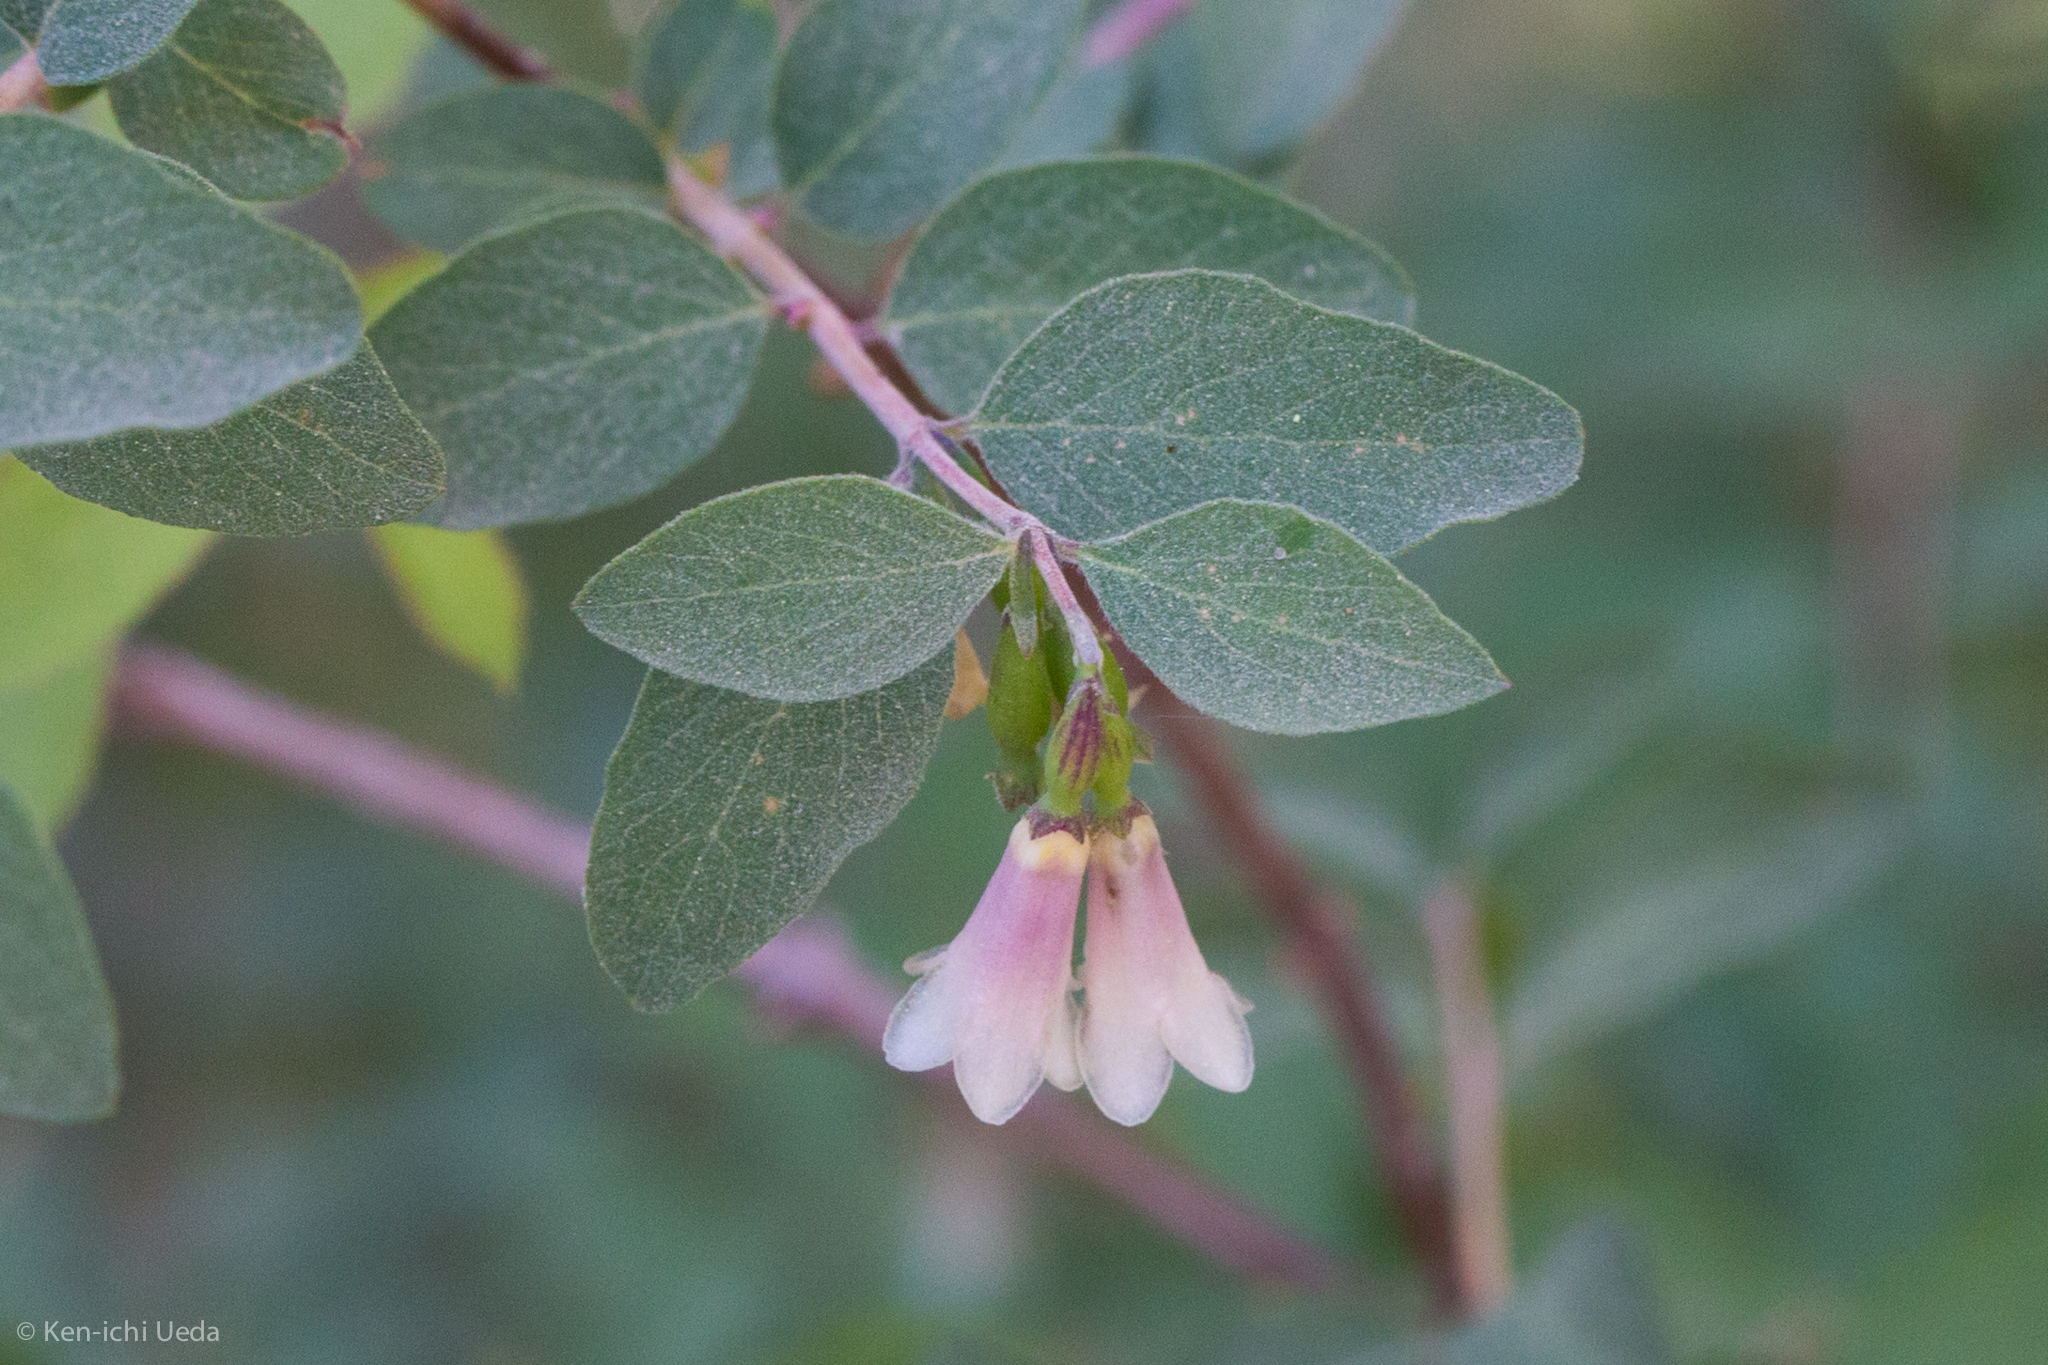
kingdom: Plantae
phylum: Tracheophyta
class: Magnoliopsida
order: Dipsacales
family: Caprifoliaceae
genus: Symphoricarpos
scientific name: Symphoricarpos rotundifolius
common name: Round-leaved snowberry
